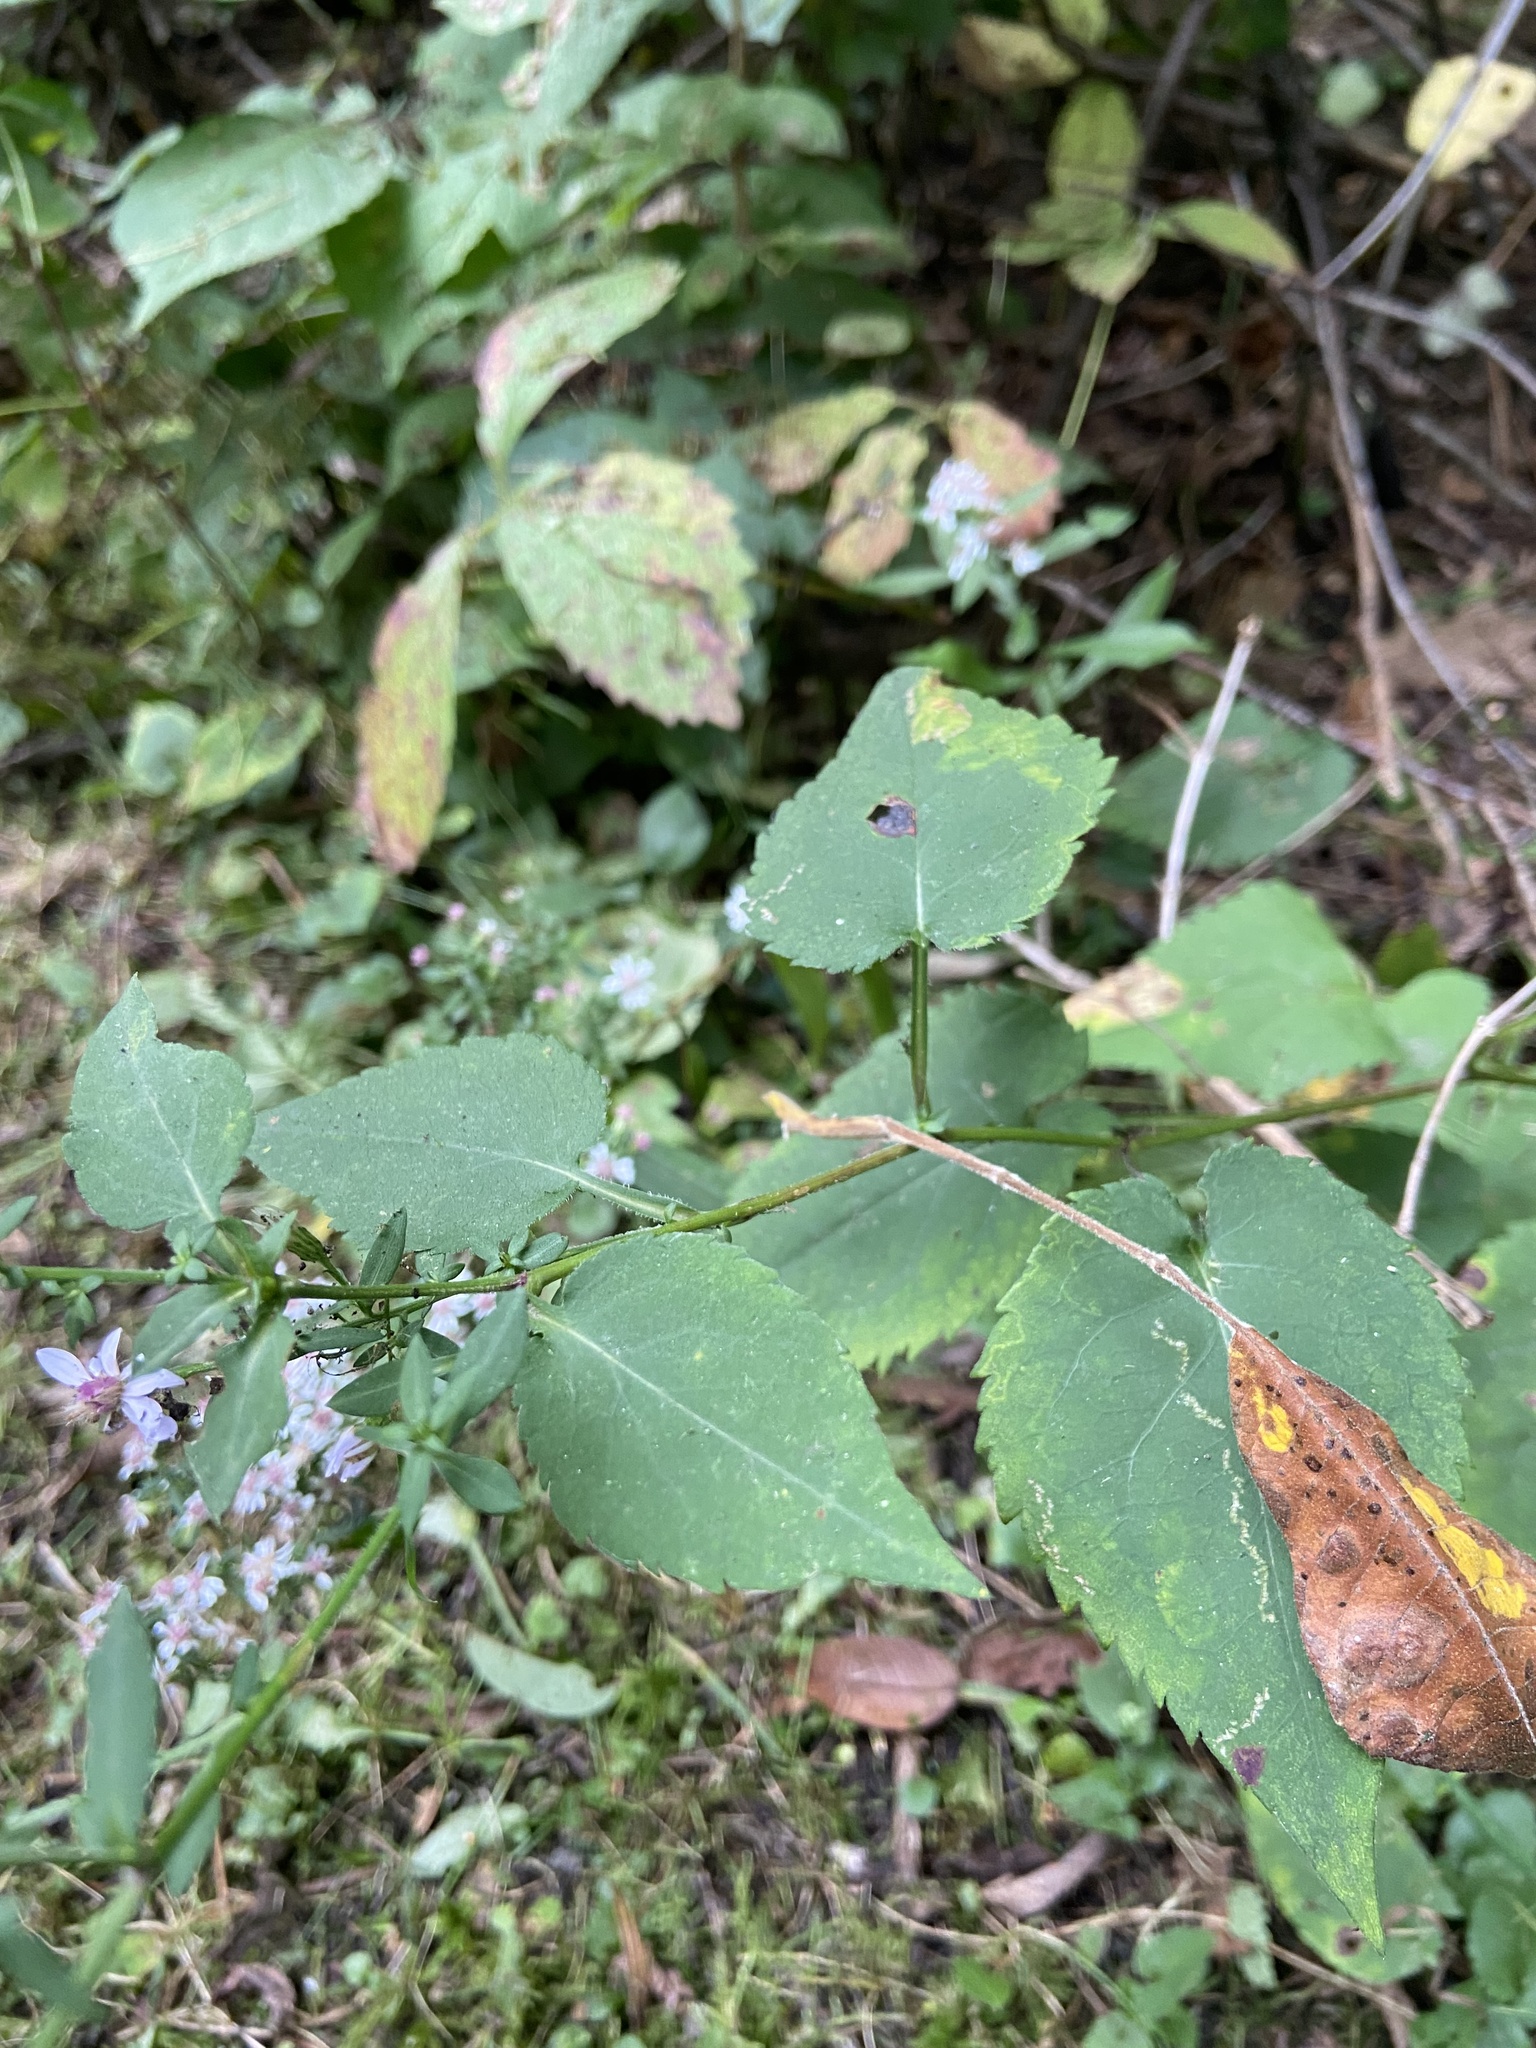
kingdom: Plantae
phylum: Tracheophyta
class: Magnoliopsida
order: Asterales
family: Asteraceae
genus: Symphyotrichum
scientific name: Symphyotrichum cordifolium
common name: Beeweed
